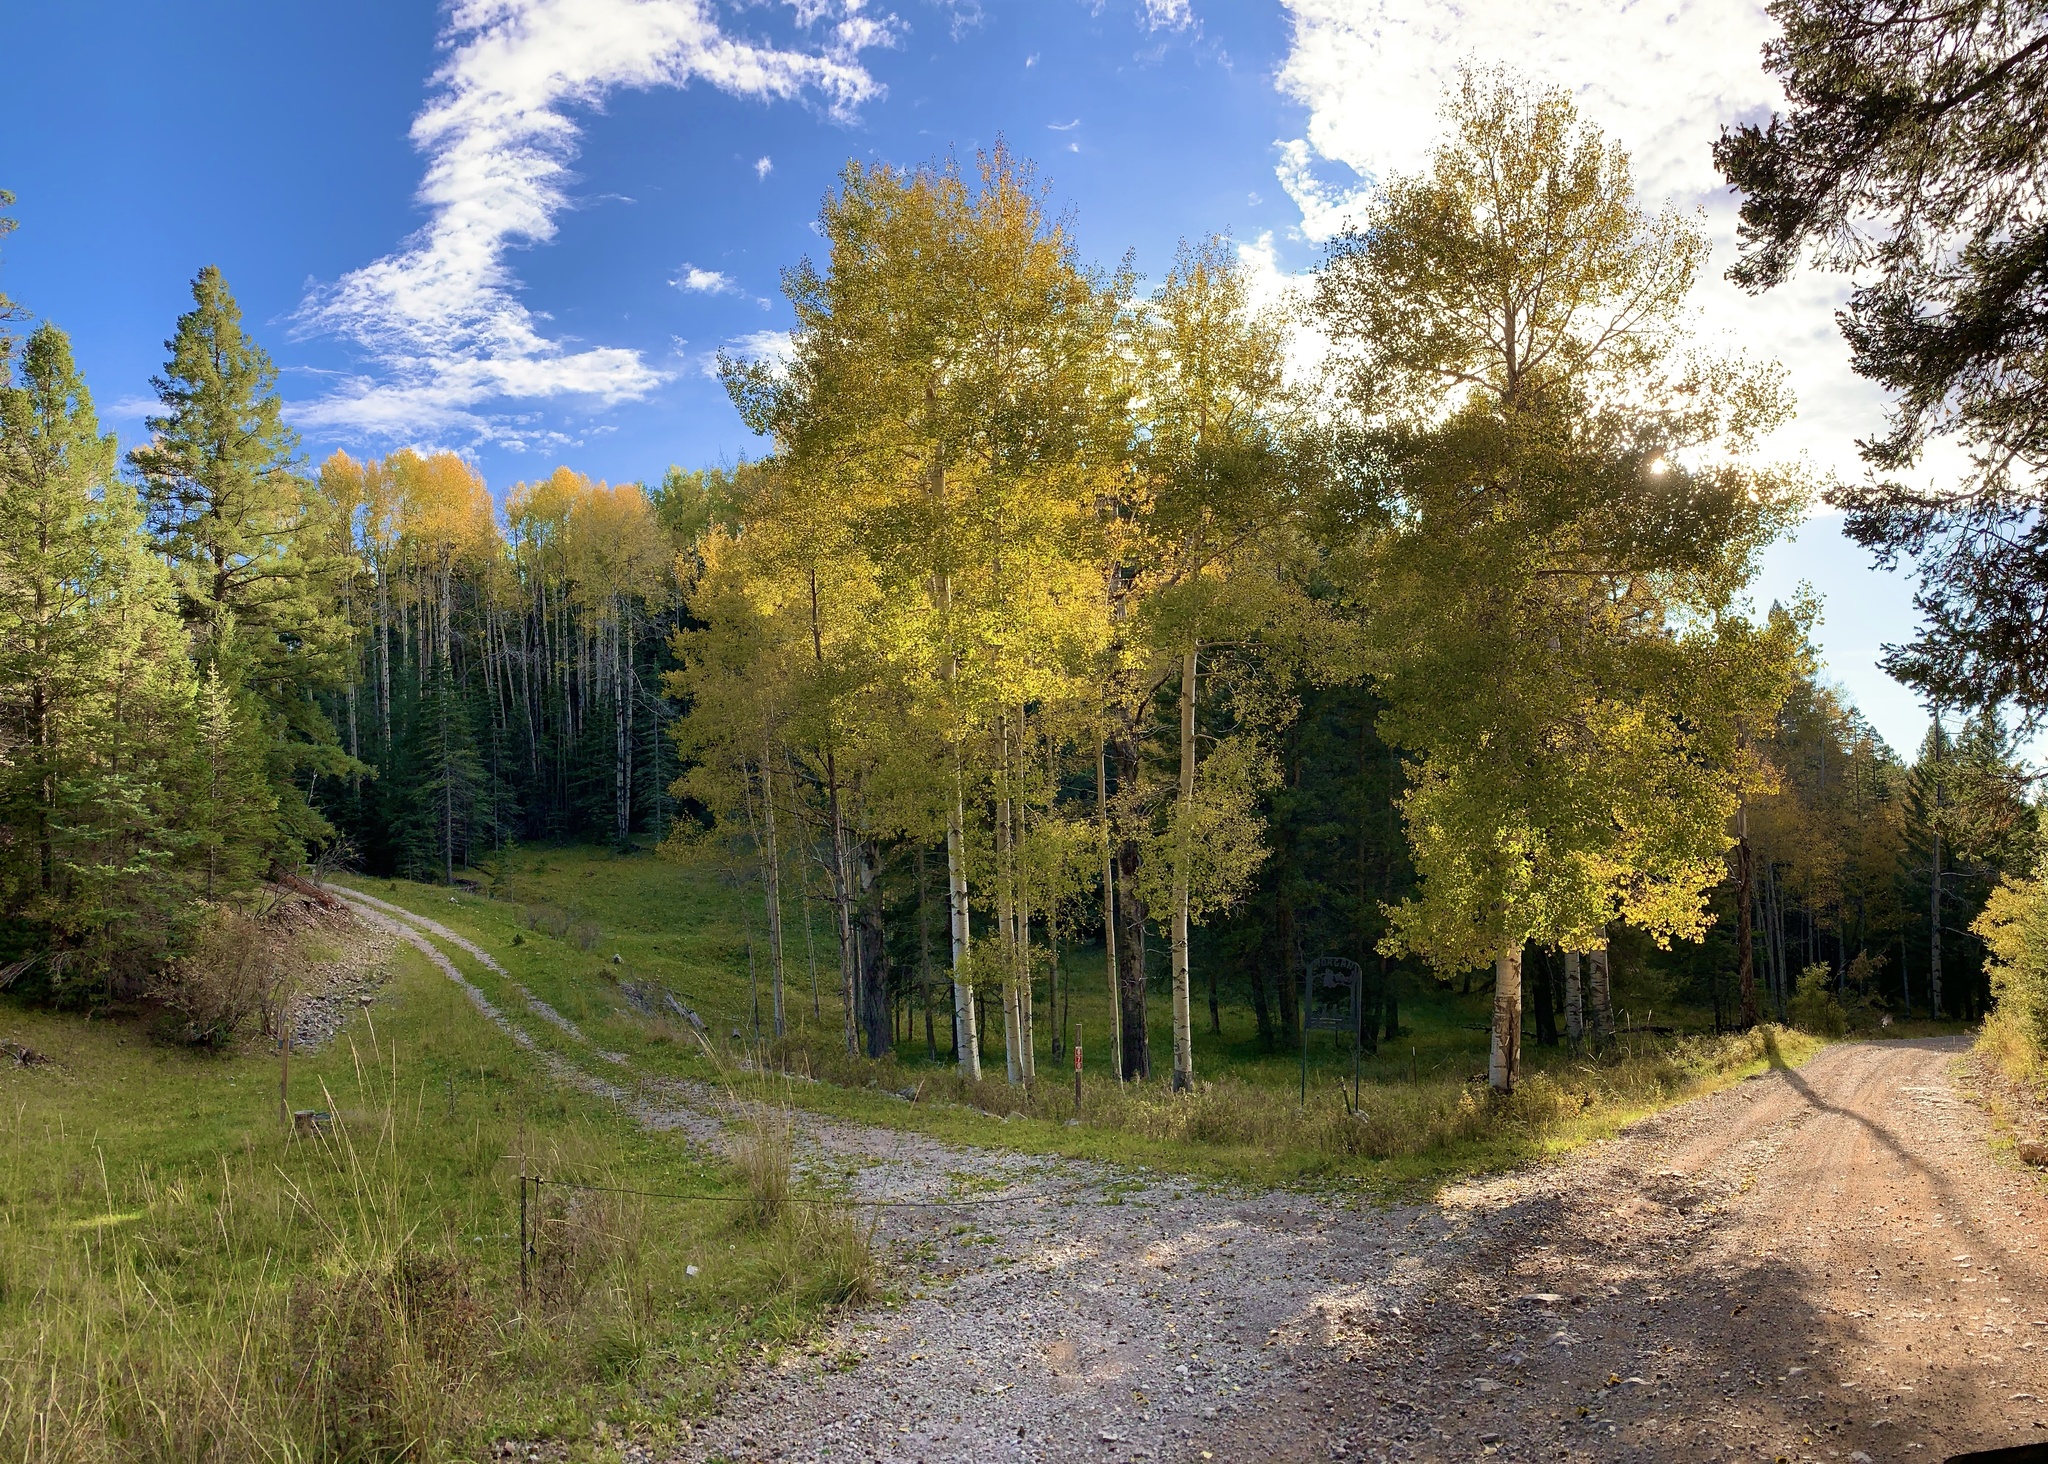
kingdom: Plantae
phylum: Tracheophyta
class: Magnoliopsida
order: Malpighiales
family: Salicaceae
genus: Populus
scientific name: Populus tremuloides
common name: Quaking aspen
